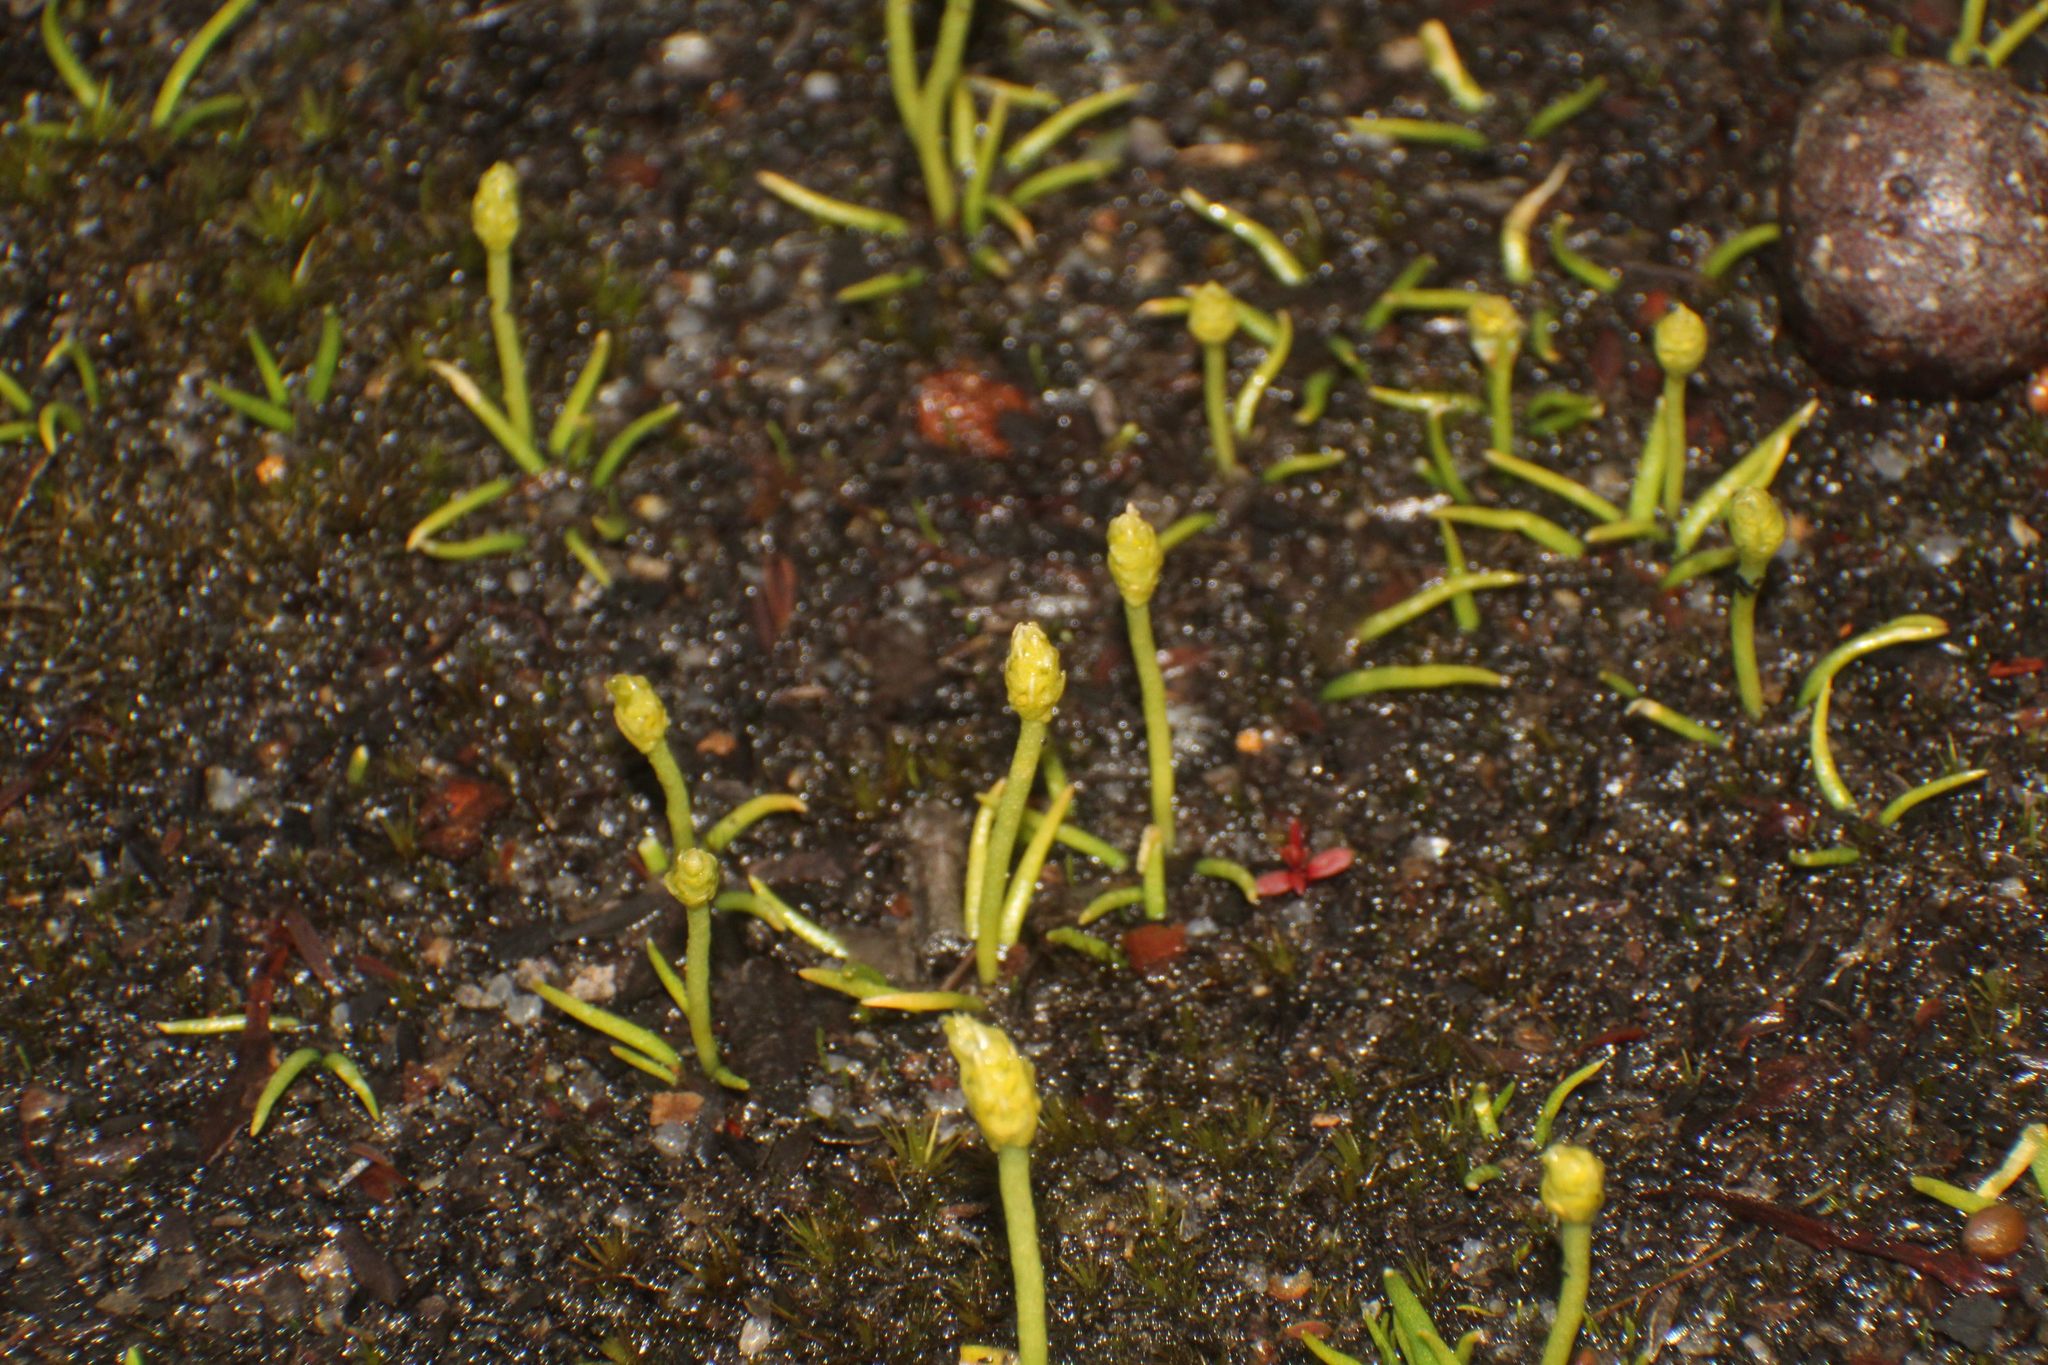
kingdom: Plantae
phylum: Tracheophyta
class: Lycopodiopsida
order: Lycopodiales
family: Lycopodiaceae
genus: Phylloglossum
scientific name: Phylloglossum drummondii
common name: Pigmy-club-moss
